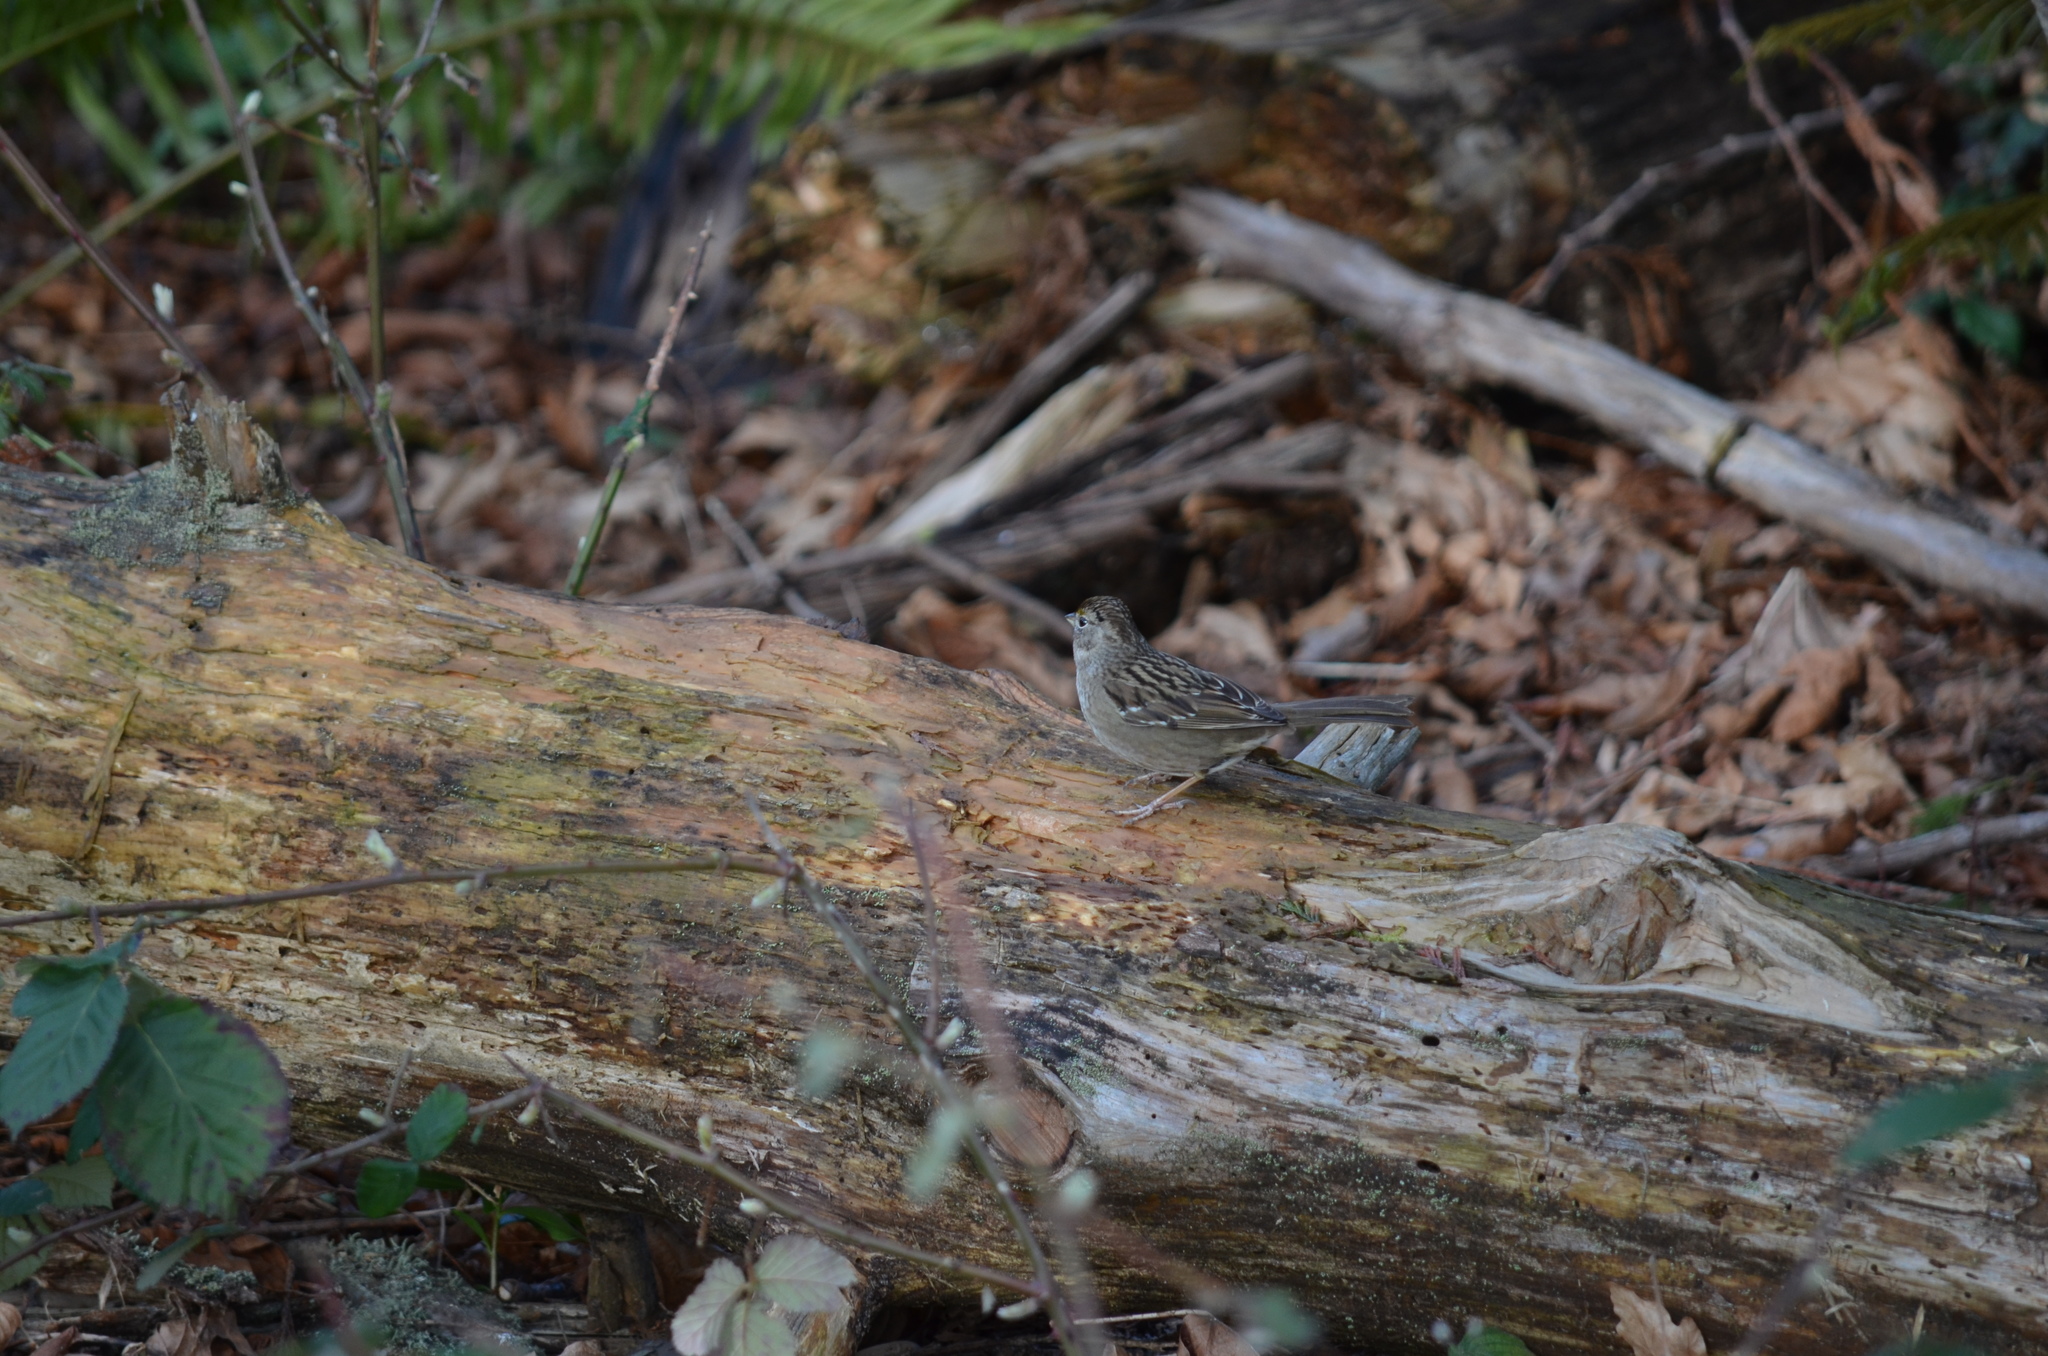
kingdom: Animalia
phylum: Chordata
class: Aves
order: Passeriformes
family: Passerellidae
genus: Zonotrichia
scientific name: Zonotrichia atricapilla
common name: Golden-crowned sparrow
